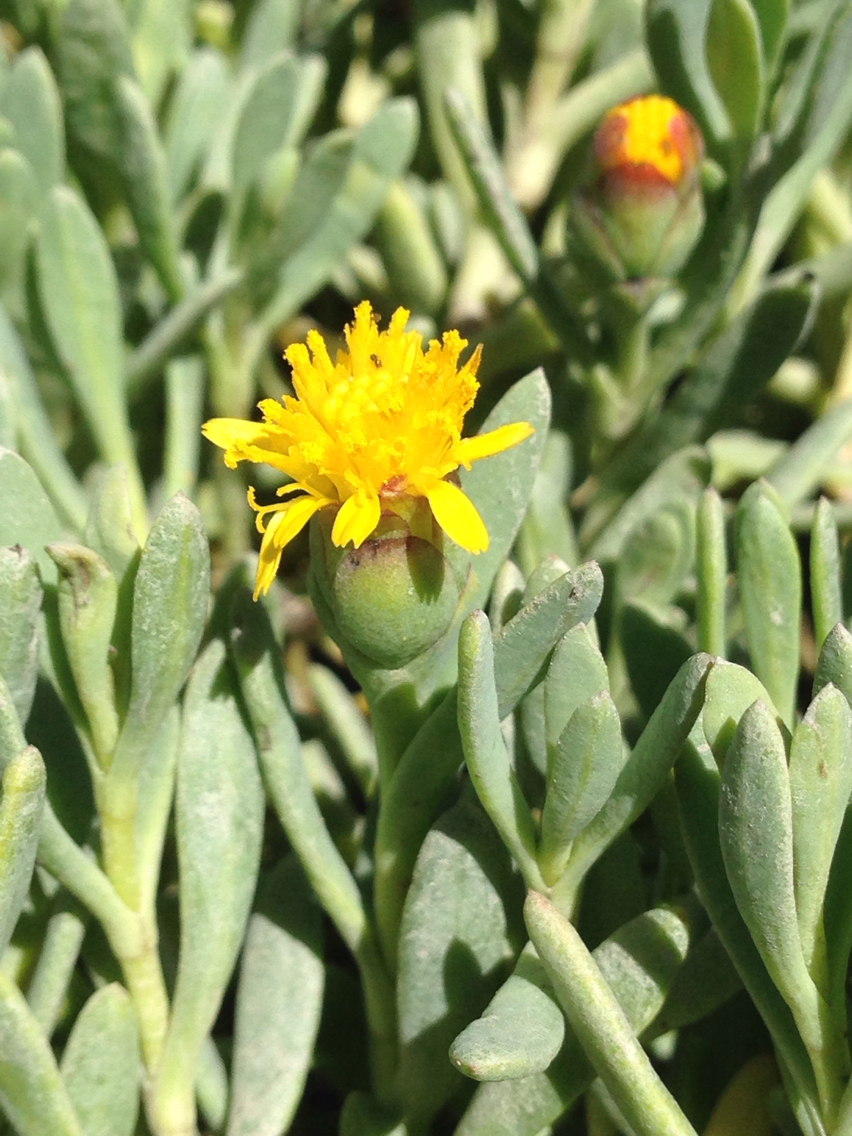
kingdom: Plantae
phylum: Tracheophyta
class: Magnoliopsida
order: Asterales
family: Asteraceae
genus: Jaumea
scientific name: Jaumea carnosa
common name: Fleshy jaumea
